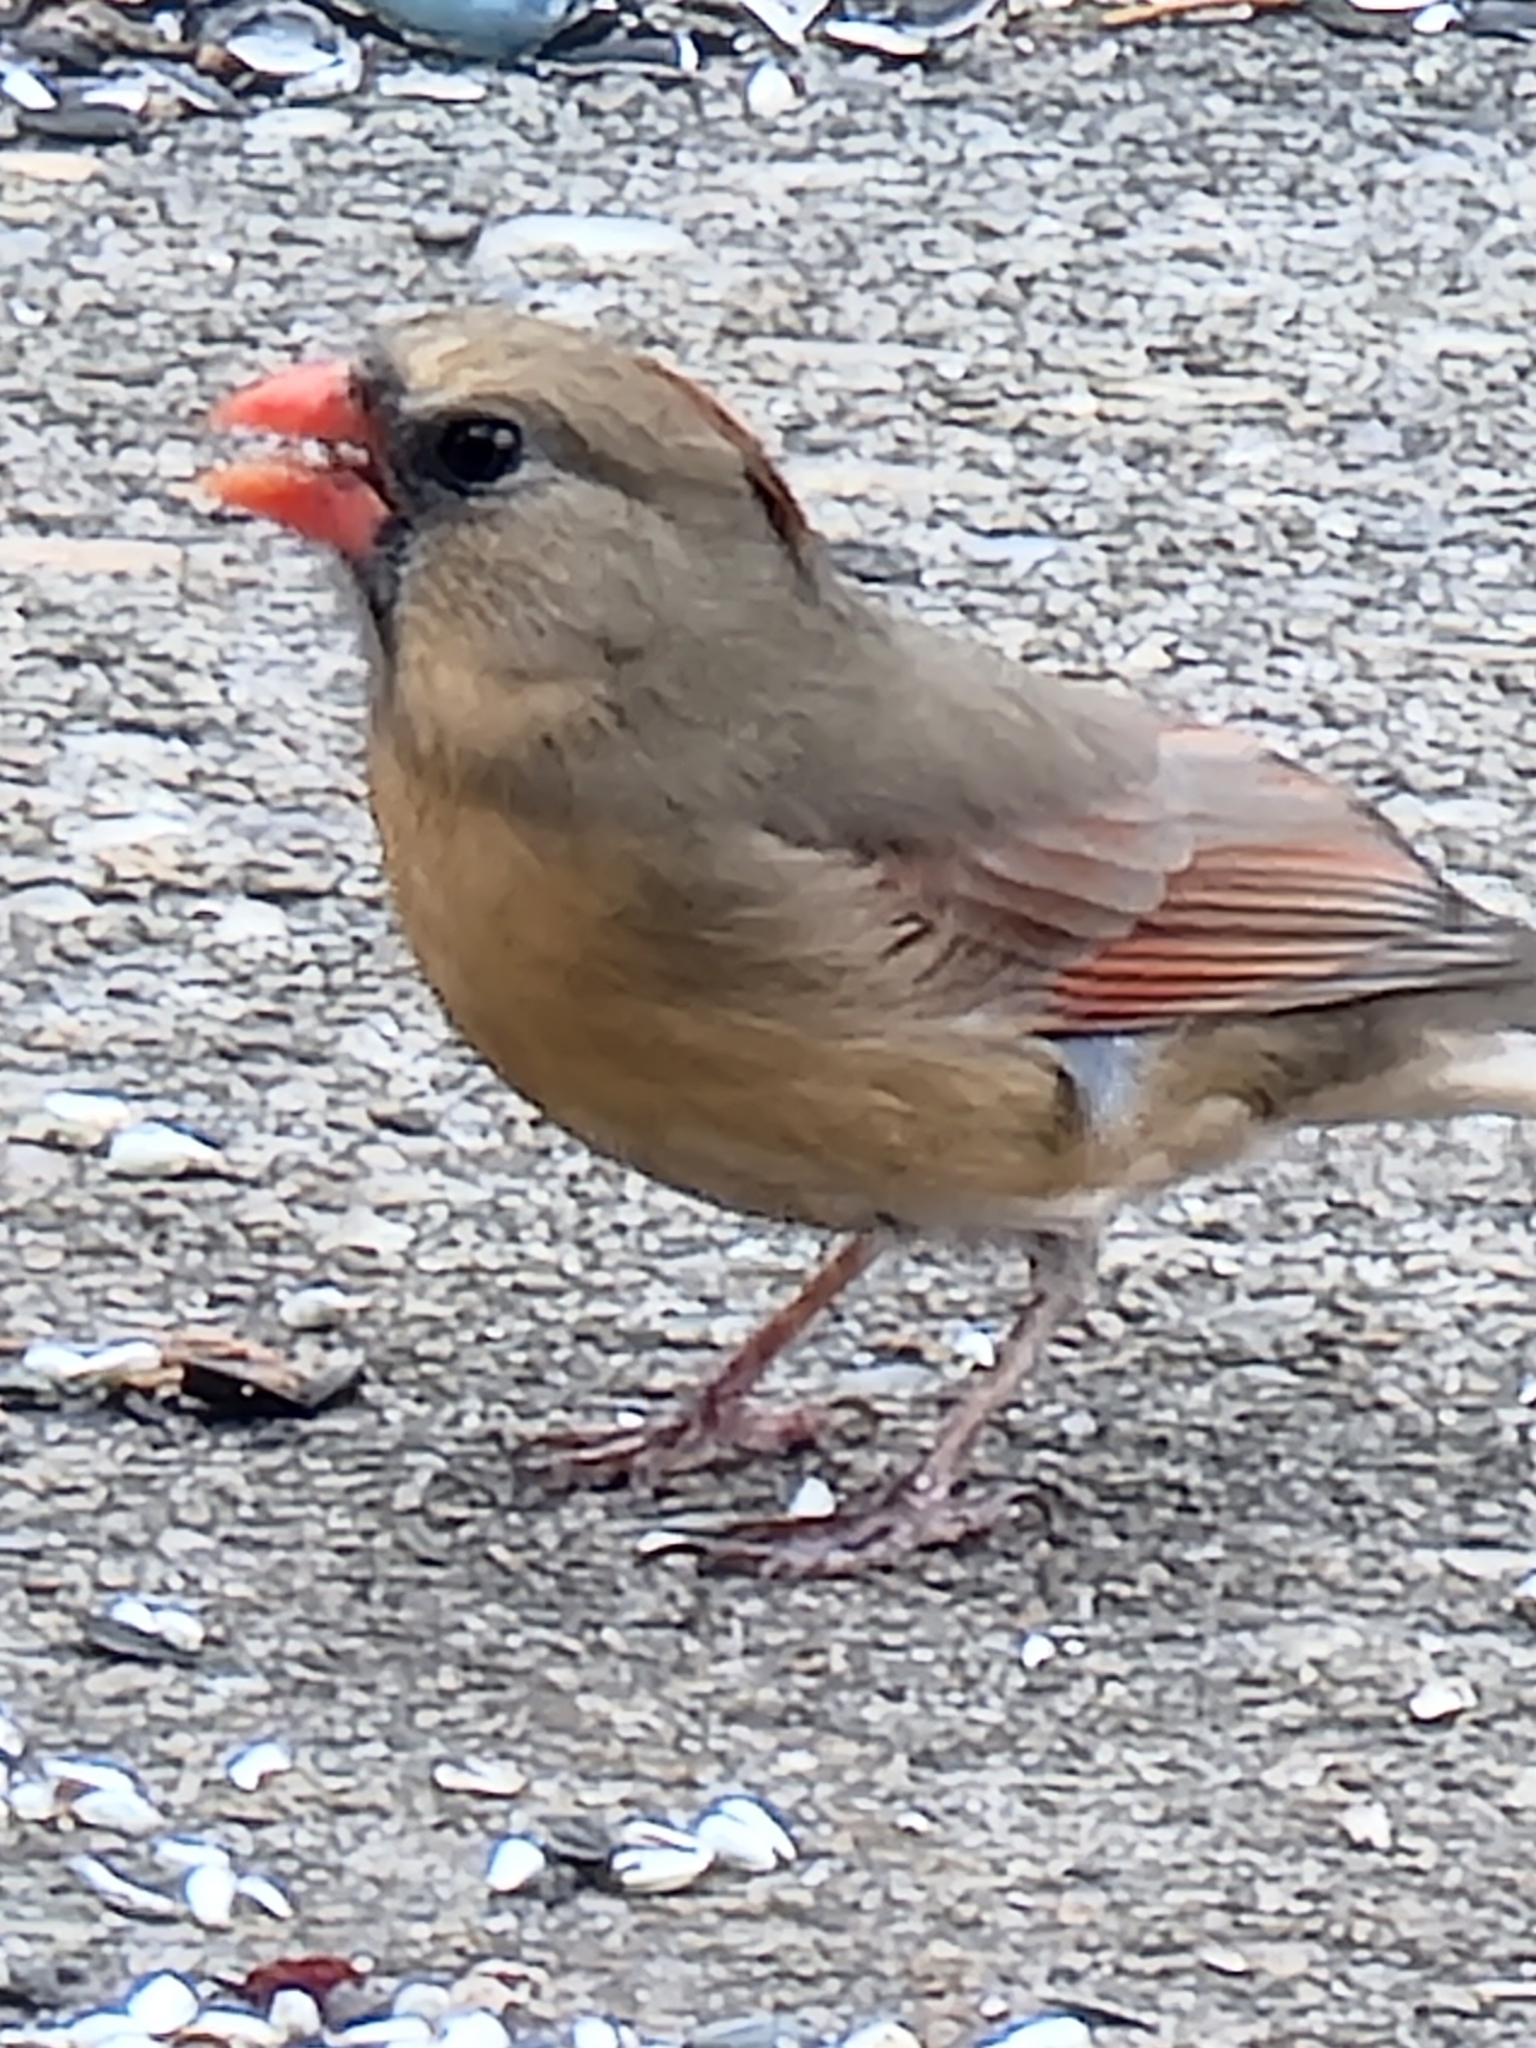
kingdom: Animalia
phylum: Chordata
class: Aves
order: Passeriformes
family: Cardinalidae
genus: Cardinalis
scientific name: Cardinalis cardinalis
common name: Northern cardinal
